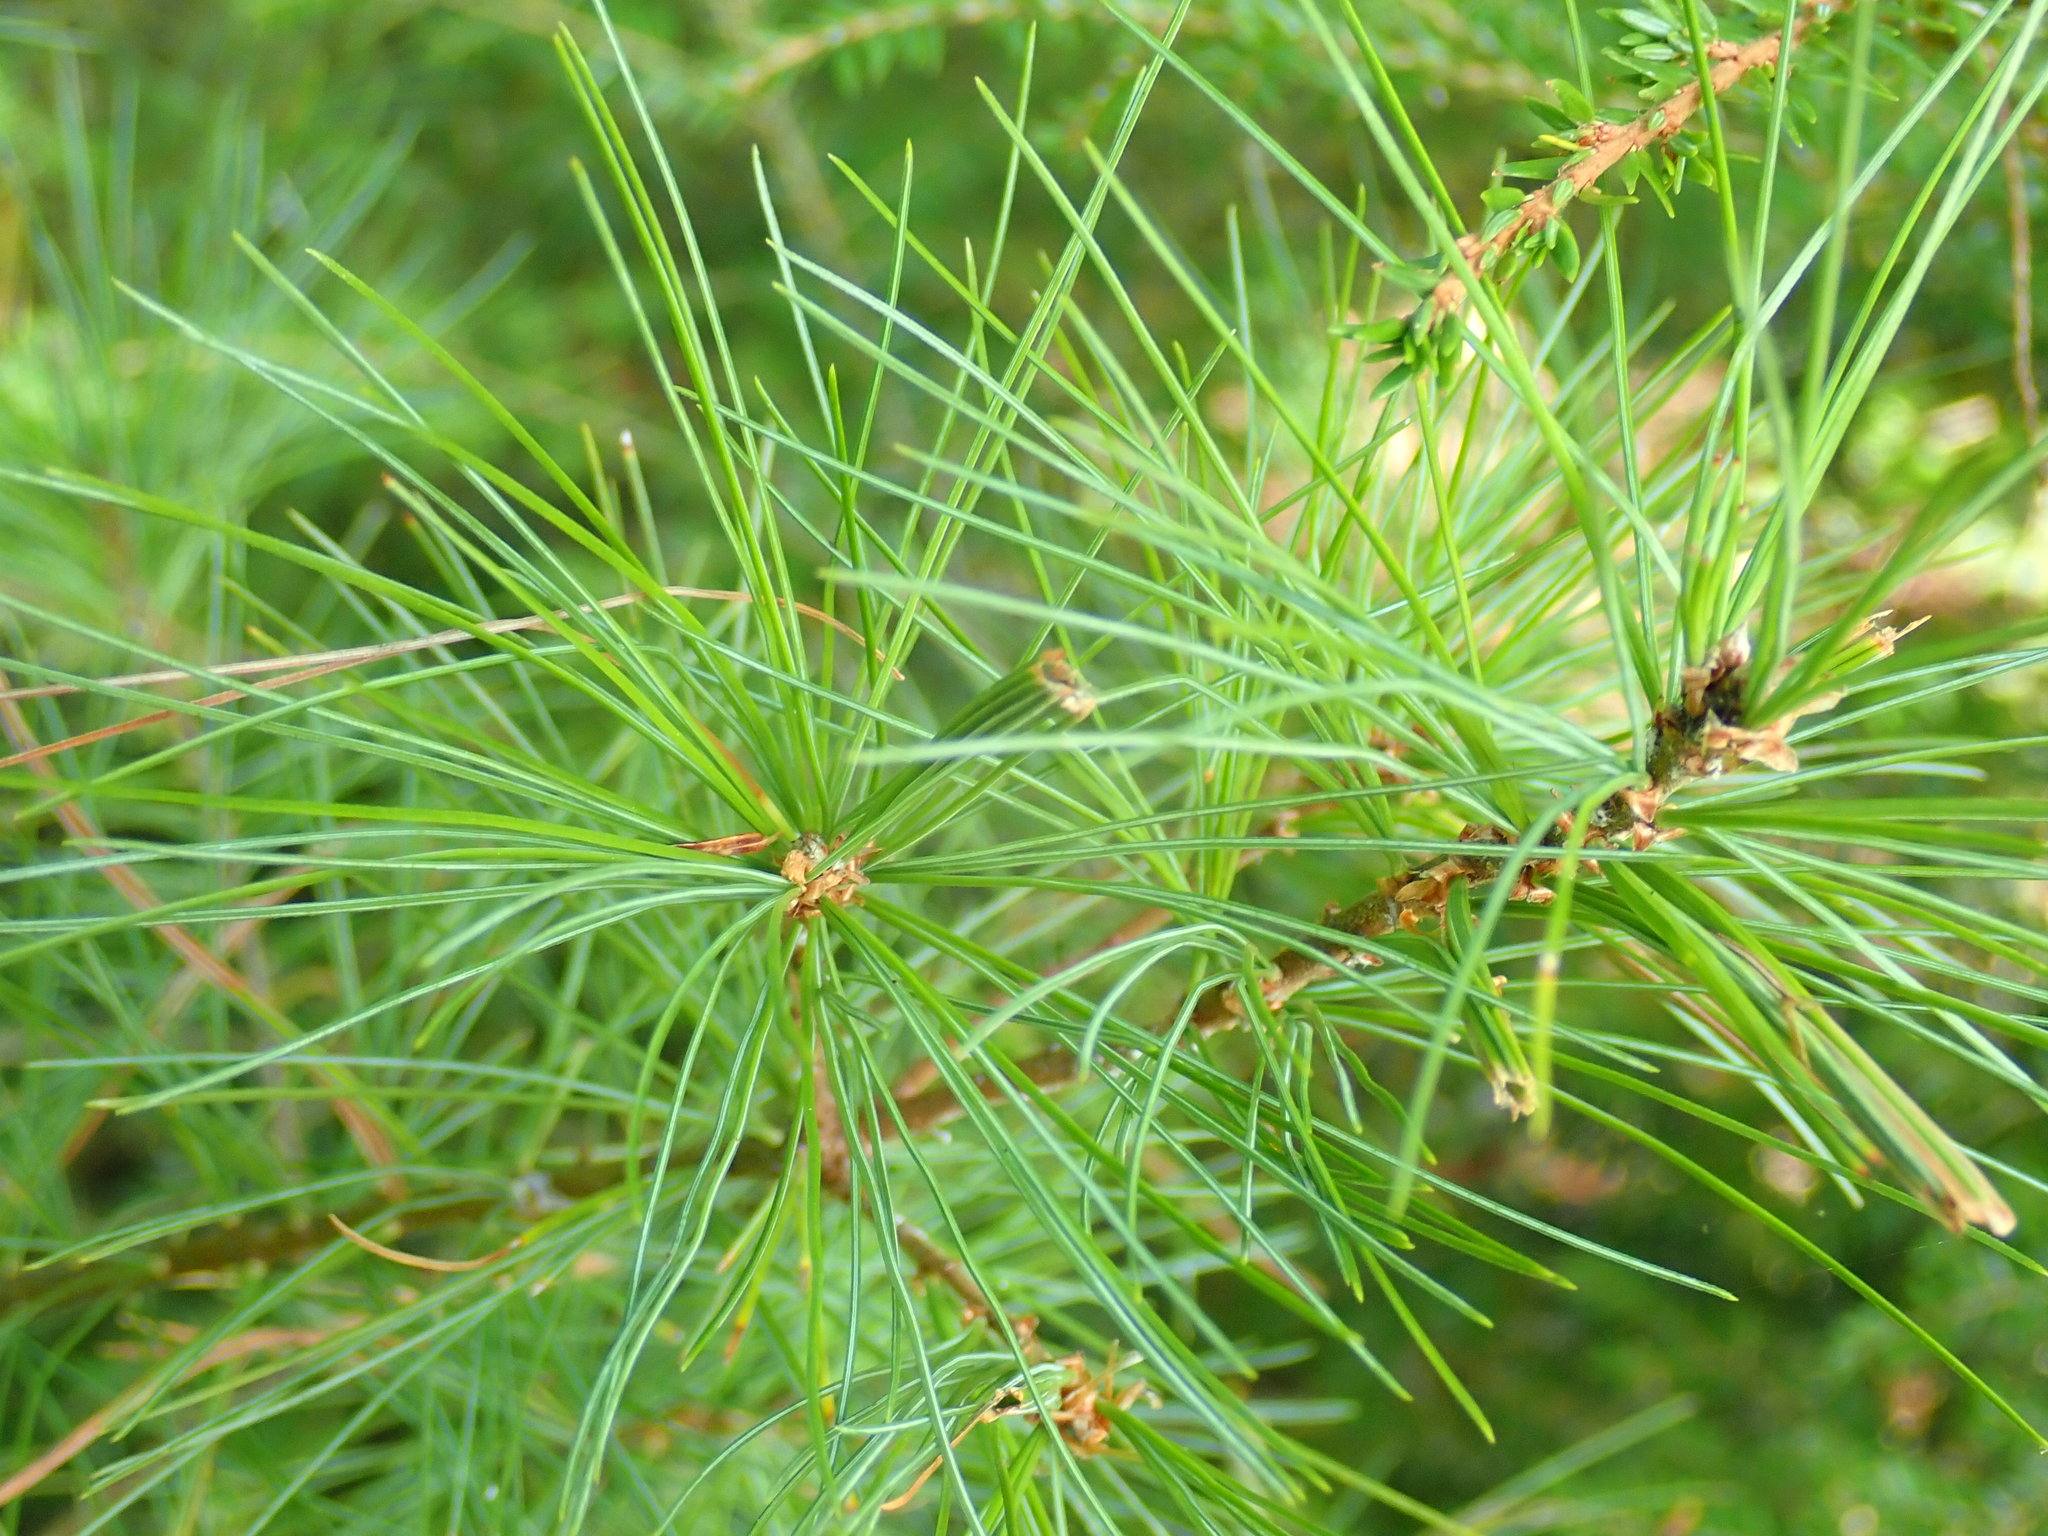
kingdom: Animalia
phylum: Arthropoda
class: Insecta
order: Lepidoptera
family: Tortricidae
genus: Argyrotaenia
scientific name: Argyrotaenia pinatubana
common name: Pine tube moth
